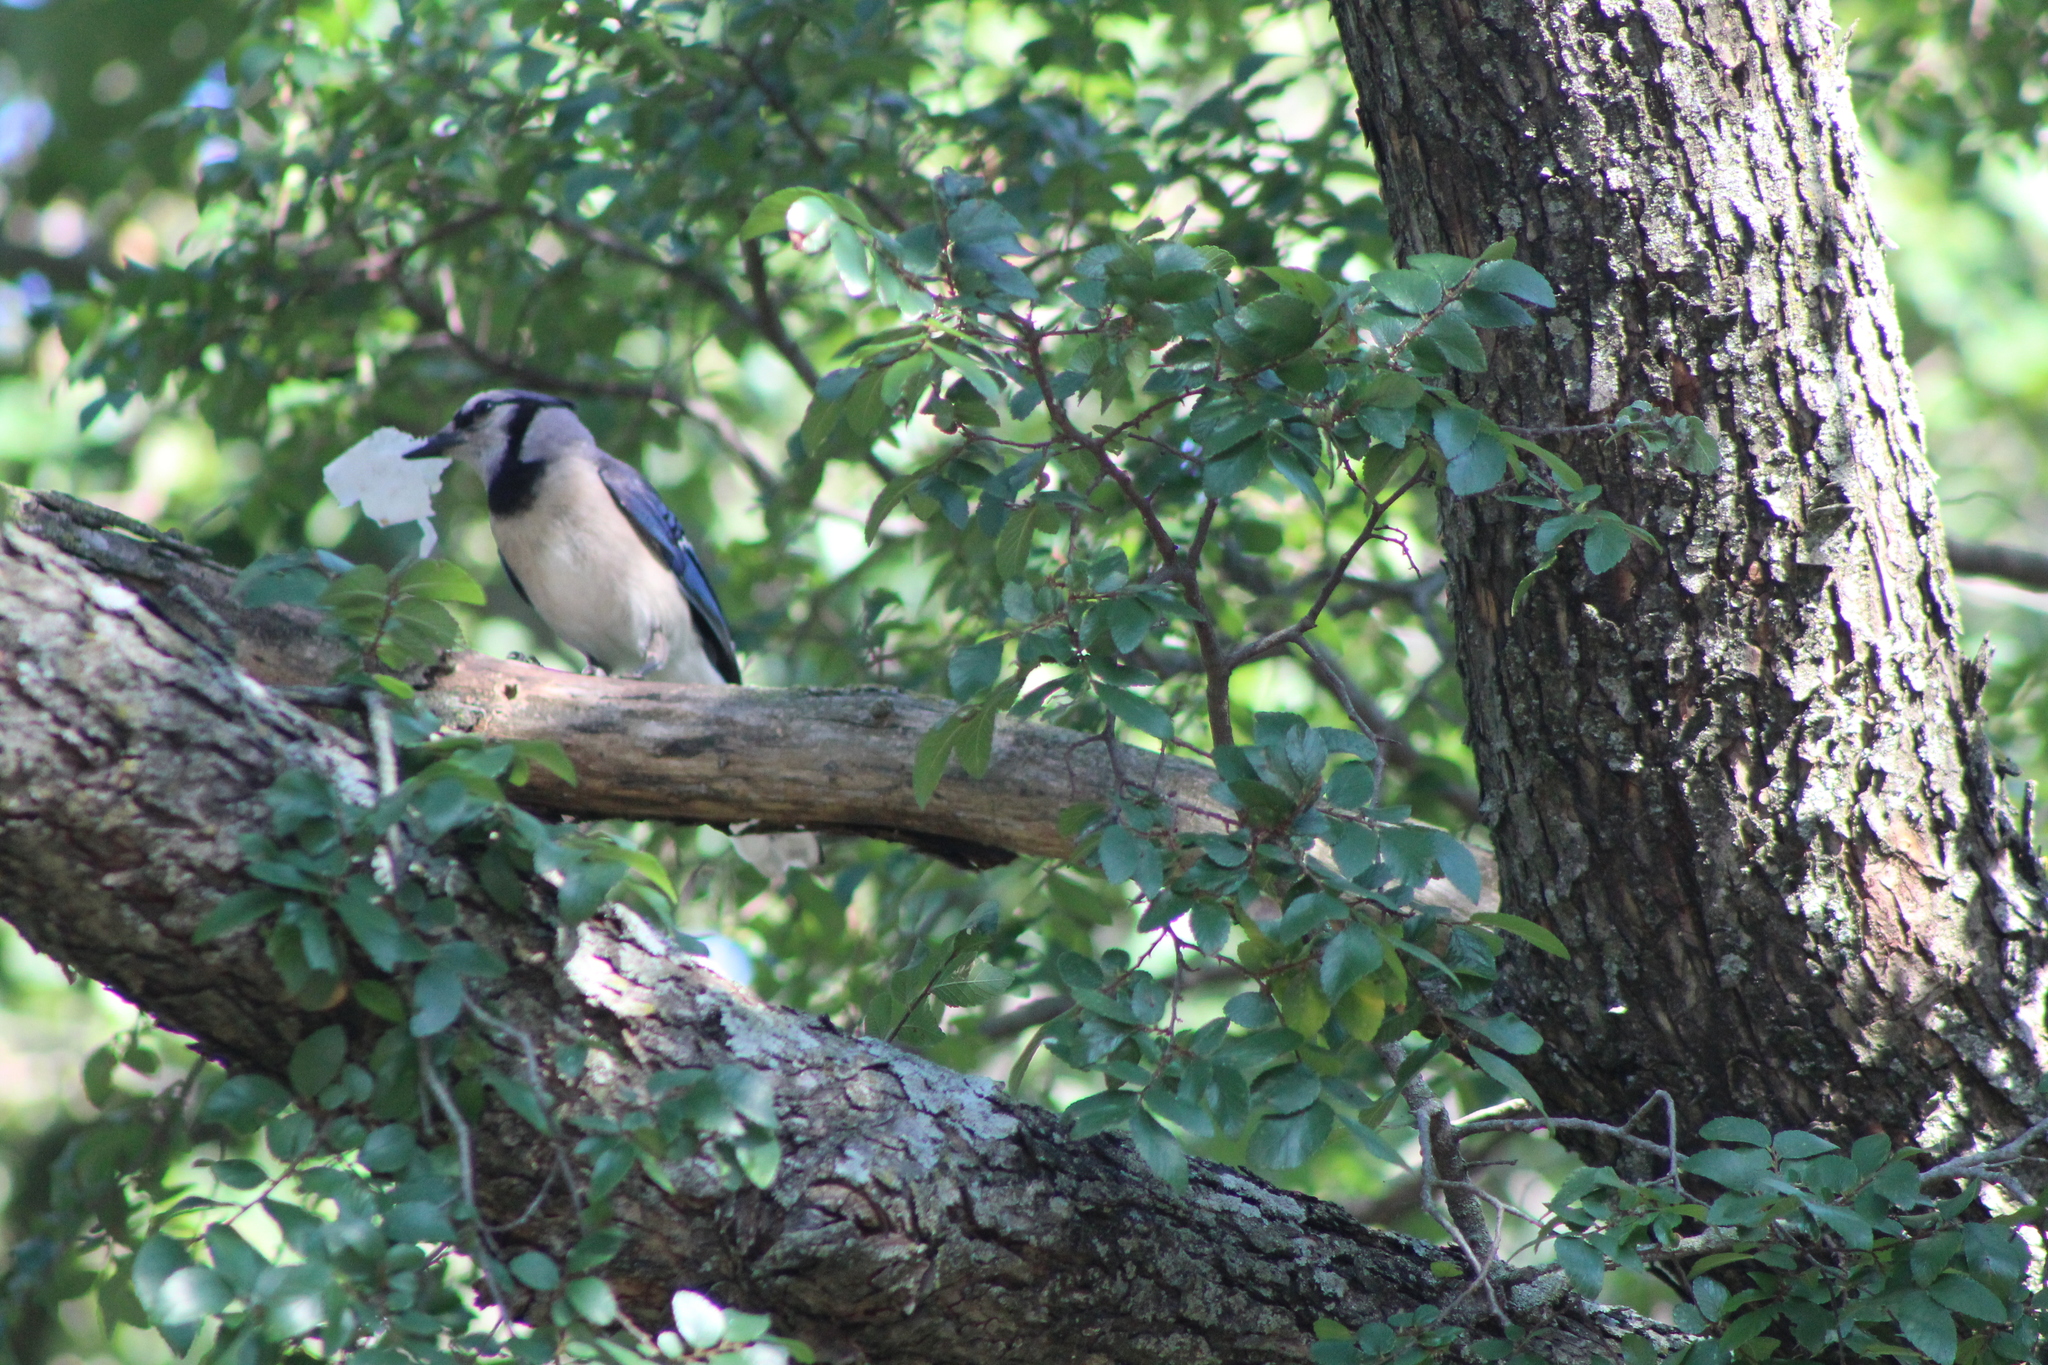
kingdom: Animalia
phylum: Chordata
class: Aves
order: Passeriformes
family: Corvidae
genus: Cyanocitta
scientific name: Cyanocitta cristata
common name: Blue jay
